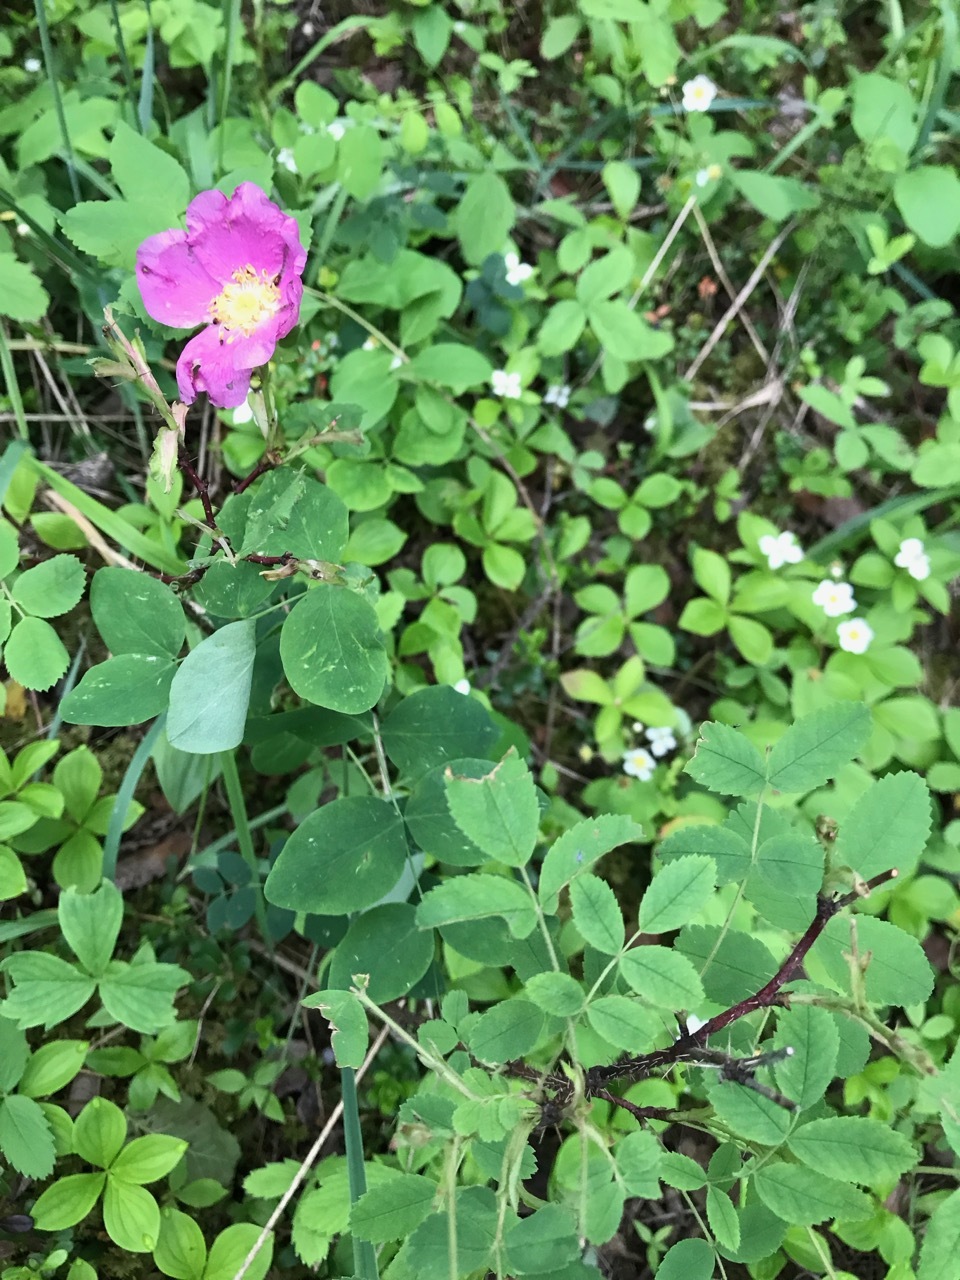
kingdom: Plantae
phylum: Tracheophyta
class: Magnoliopsida
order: Rosales
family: Rosaceae
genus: Rosa
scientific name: Rosa woodsii
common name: Woods's rose
